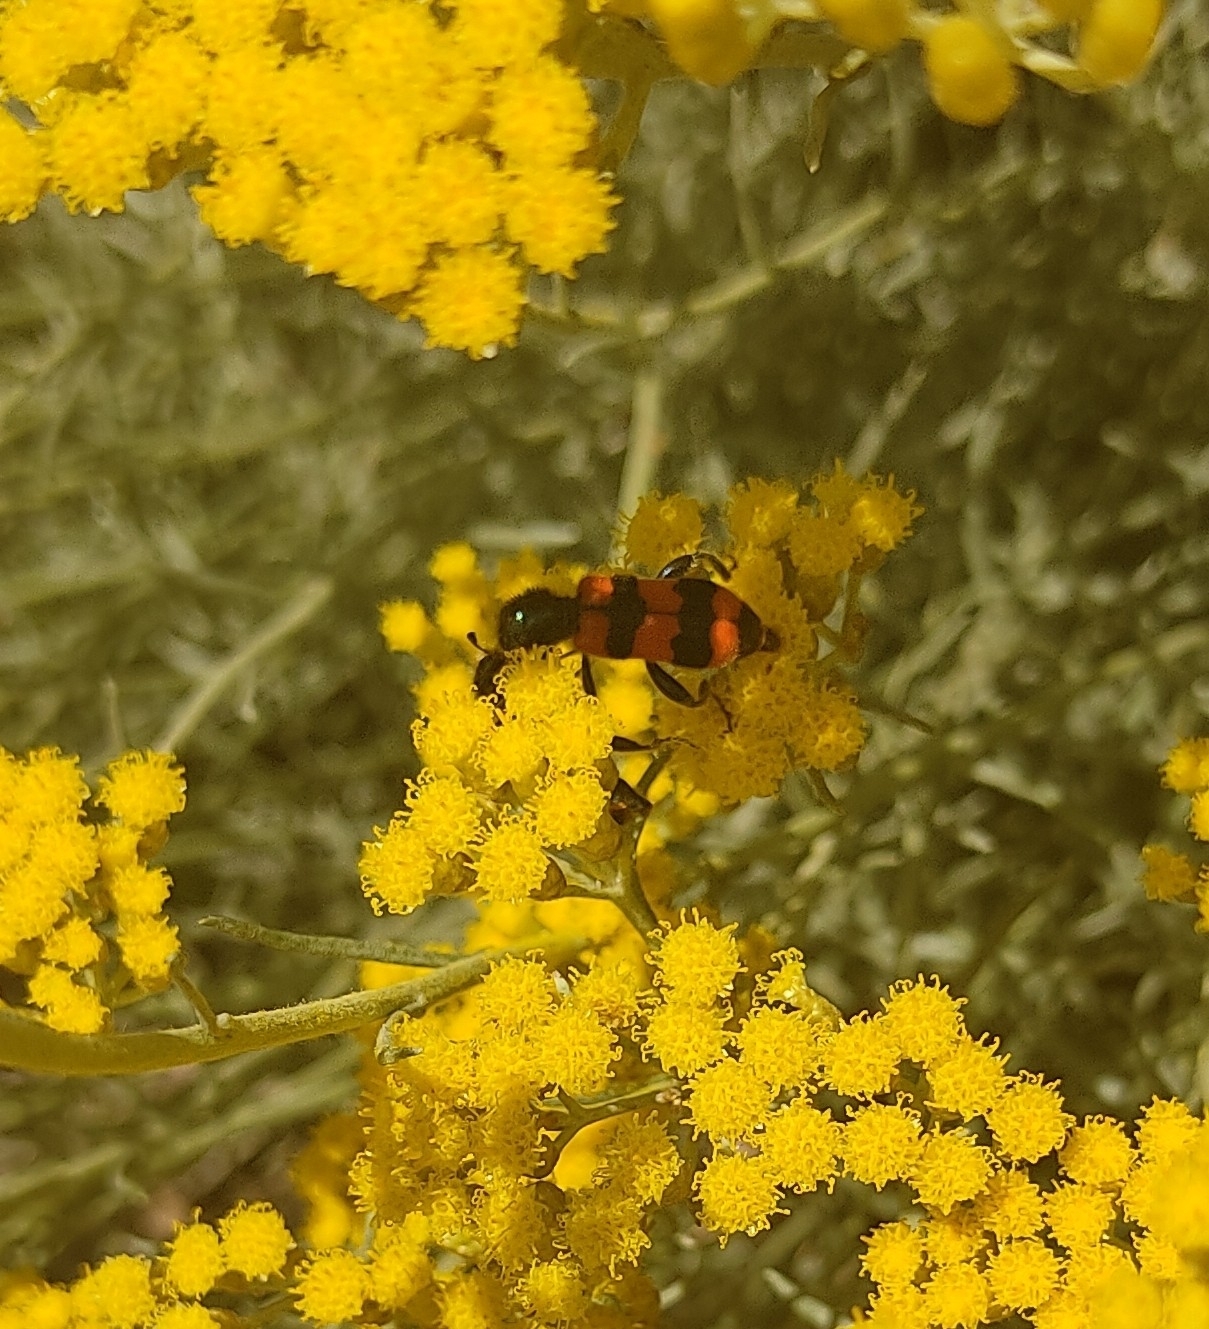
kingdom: Animalia
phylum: Arthropoda
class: Insecta
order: Coleoptera
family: Cleridae
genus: Trichodes
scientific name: Trichodes apiarius
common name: Bee-eating beetle
